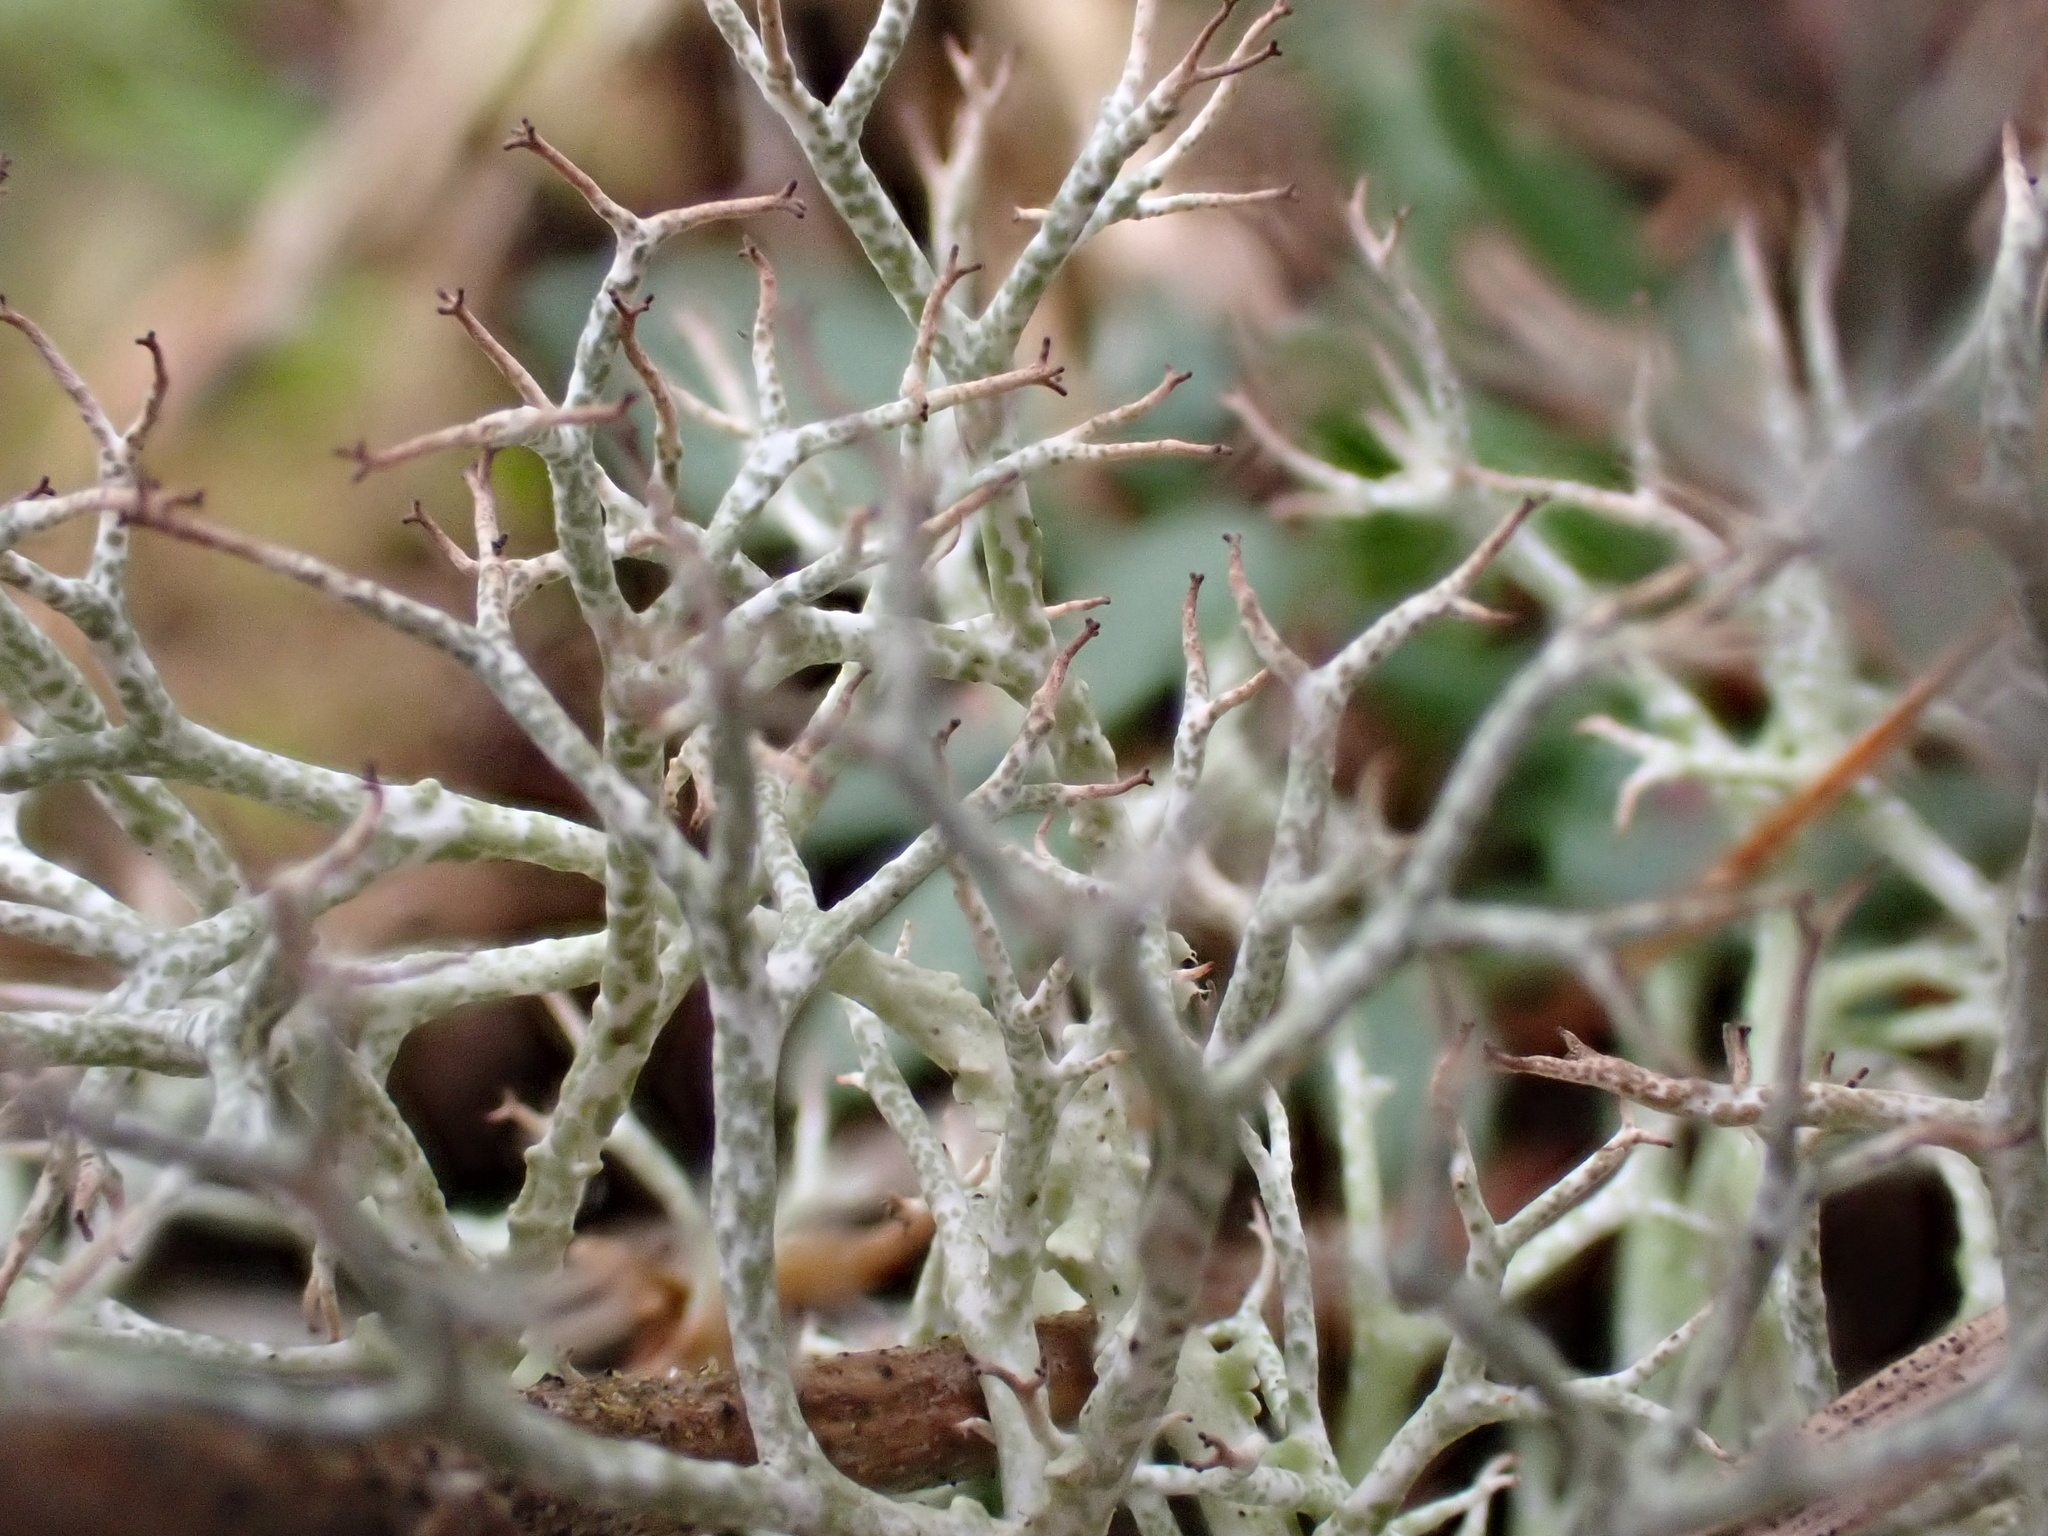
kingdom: Fungi
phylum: Ascomycota
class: Lecanoromycetes
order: Lecanorales
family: Cladoniaceae
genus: Cladonia
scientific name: Cladonia rangiformis
